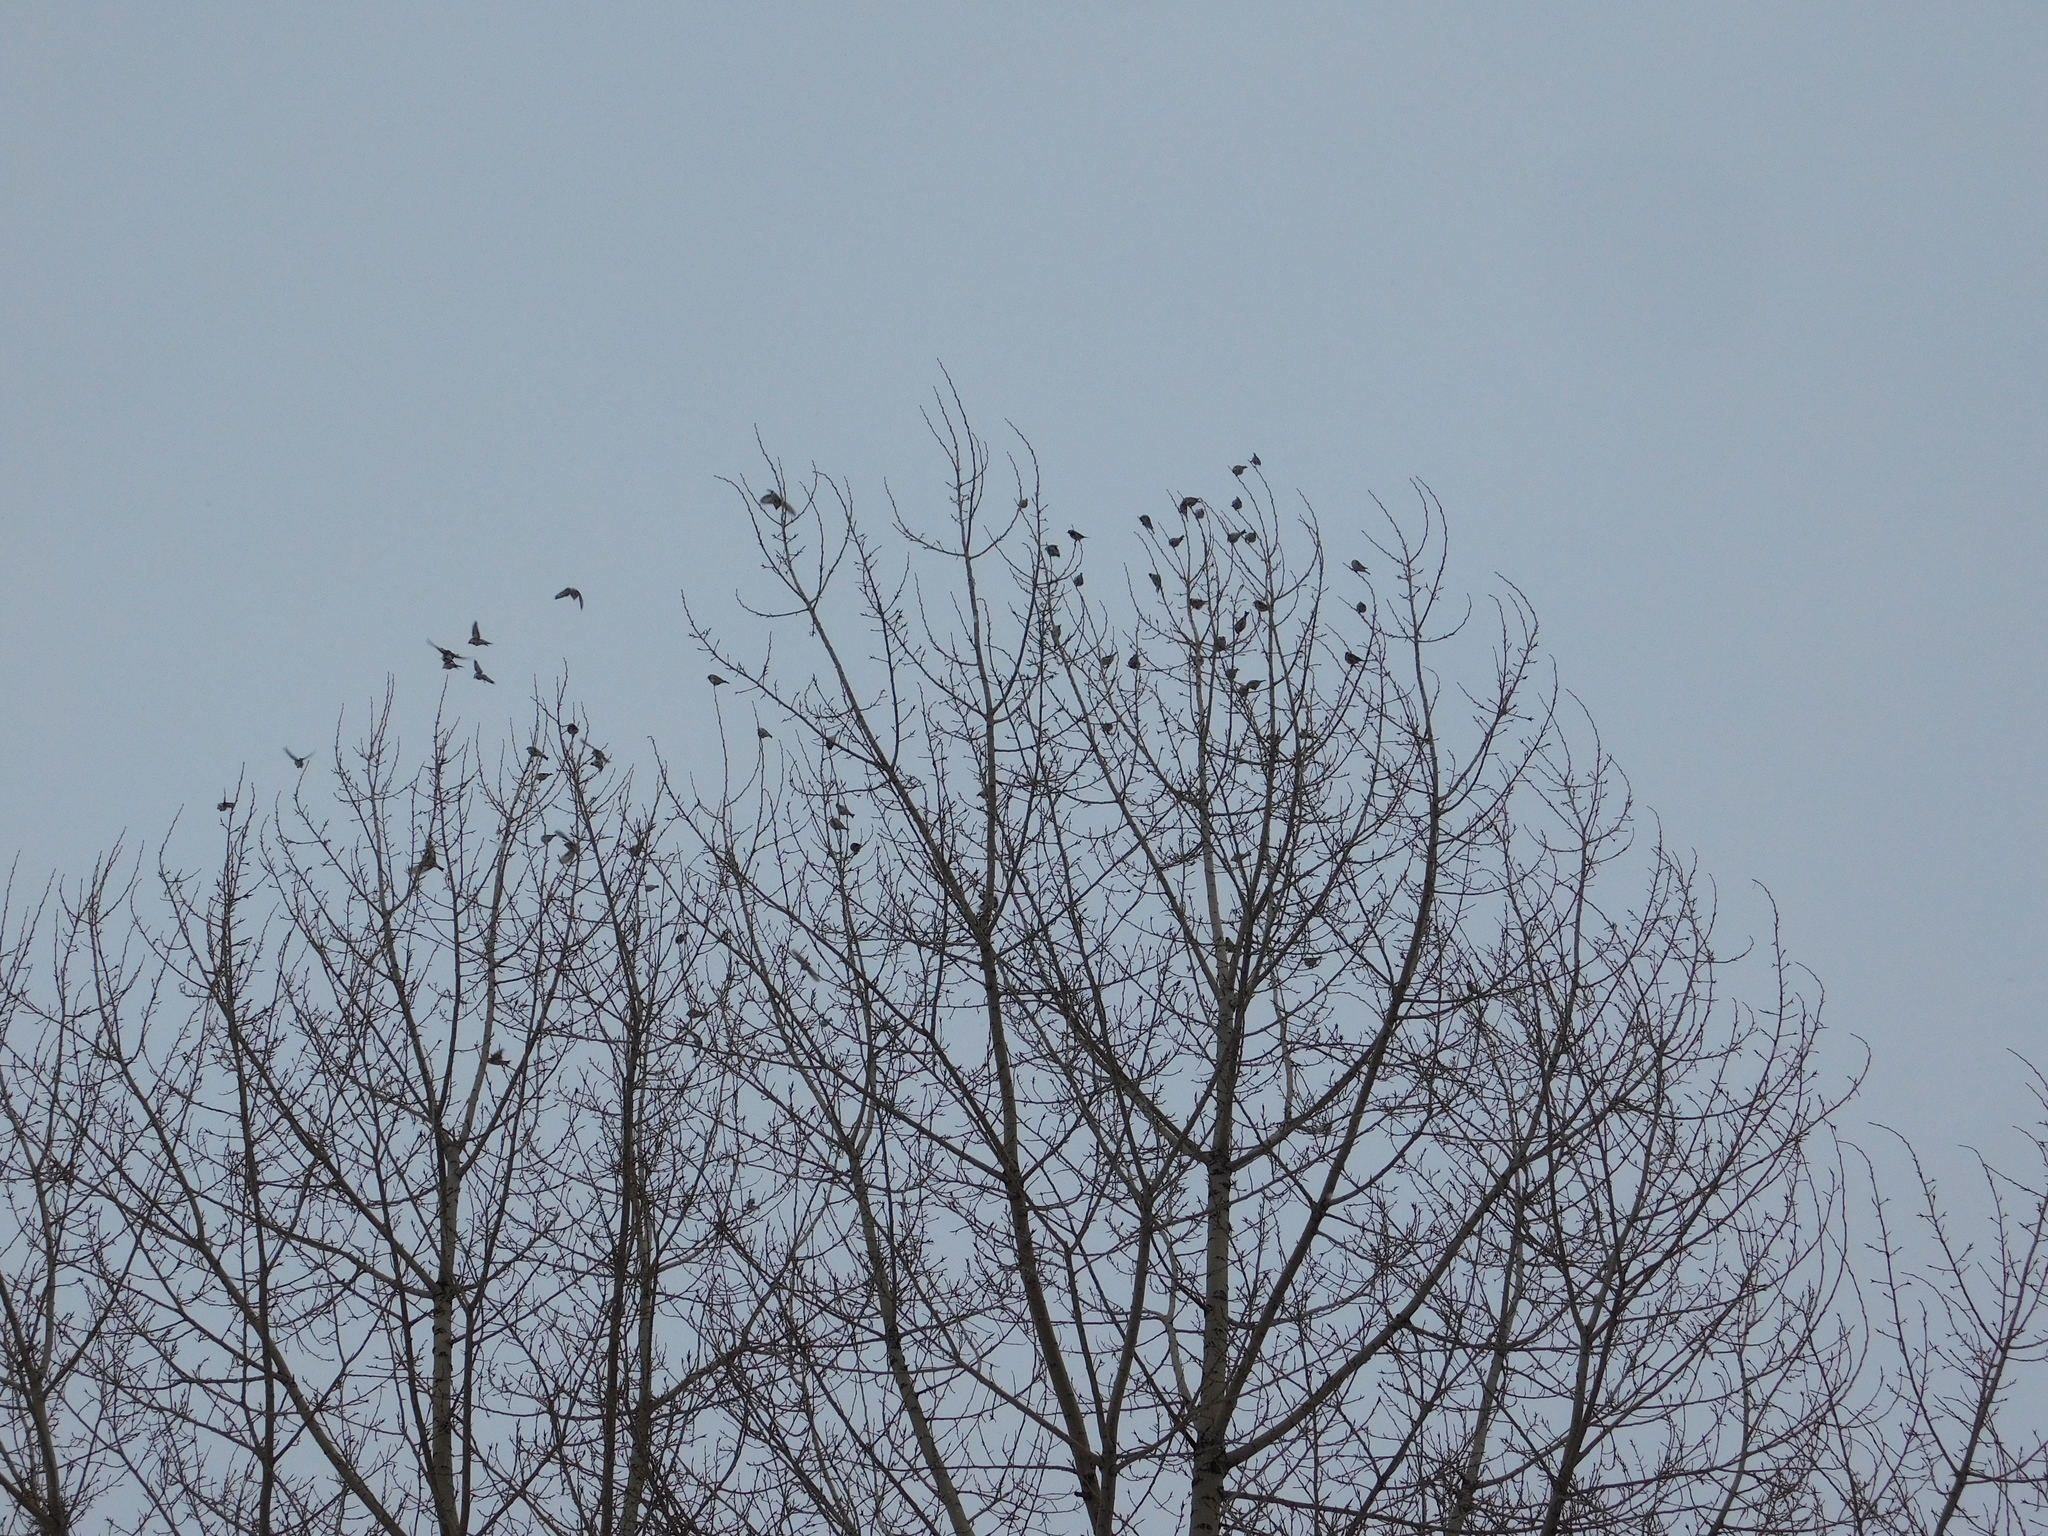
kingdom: Animalia
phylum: Chordata
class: Aves
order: Passeriformes
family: Fringillidae
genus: Carduelis
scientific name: Carduelis carduelis
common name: European goldfinch
